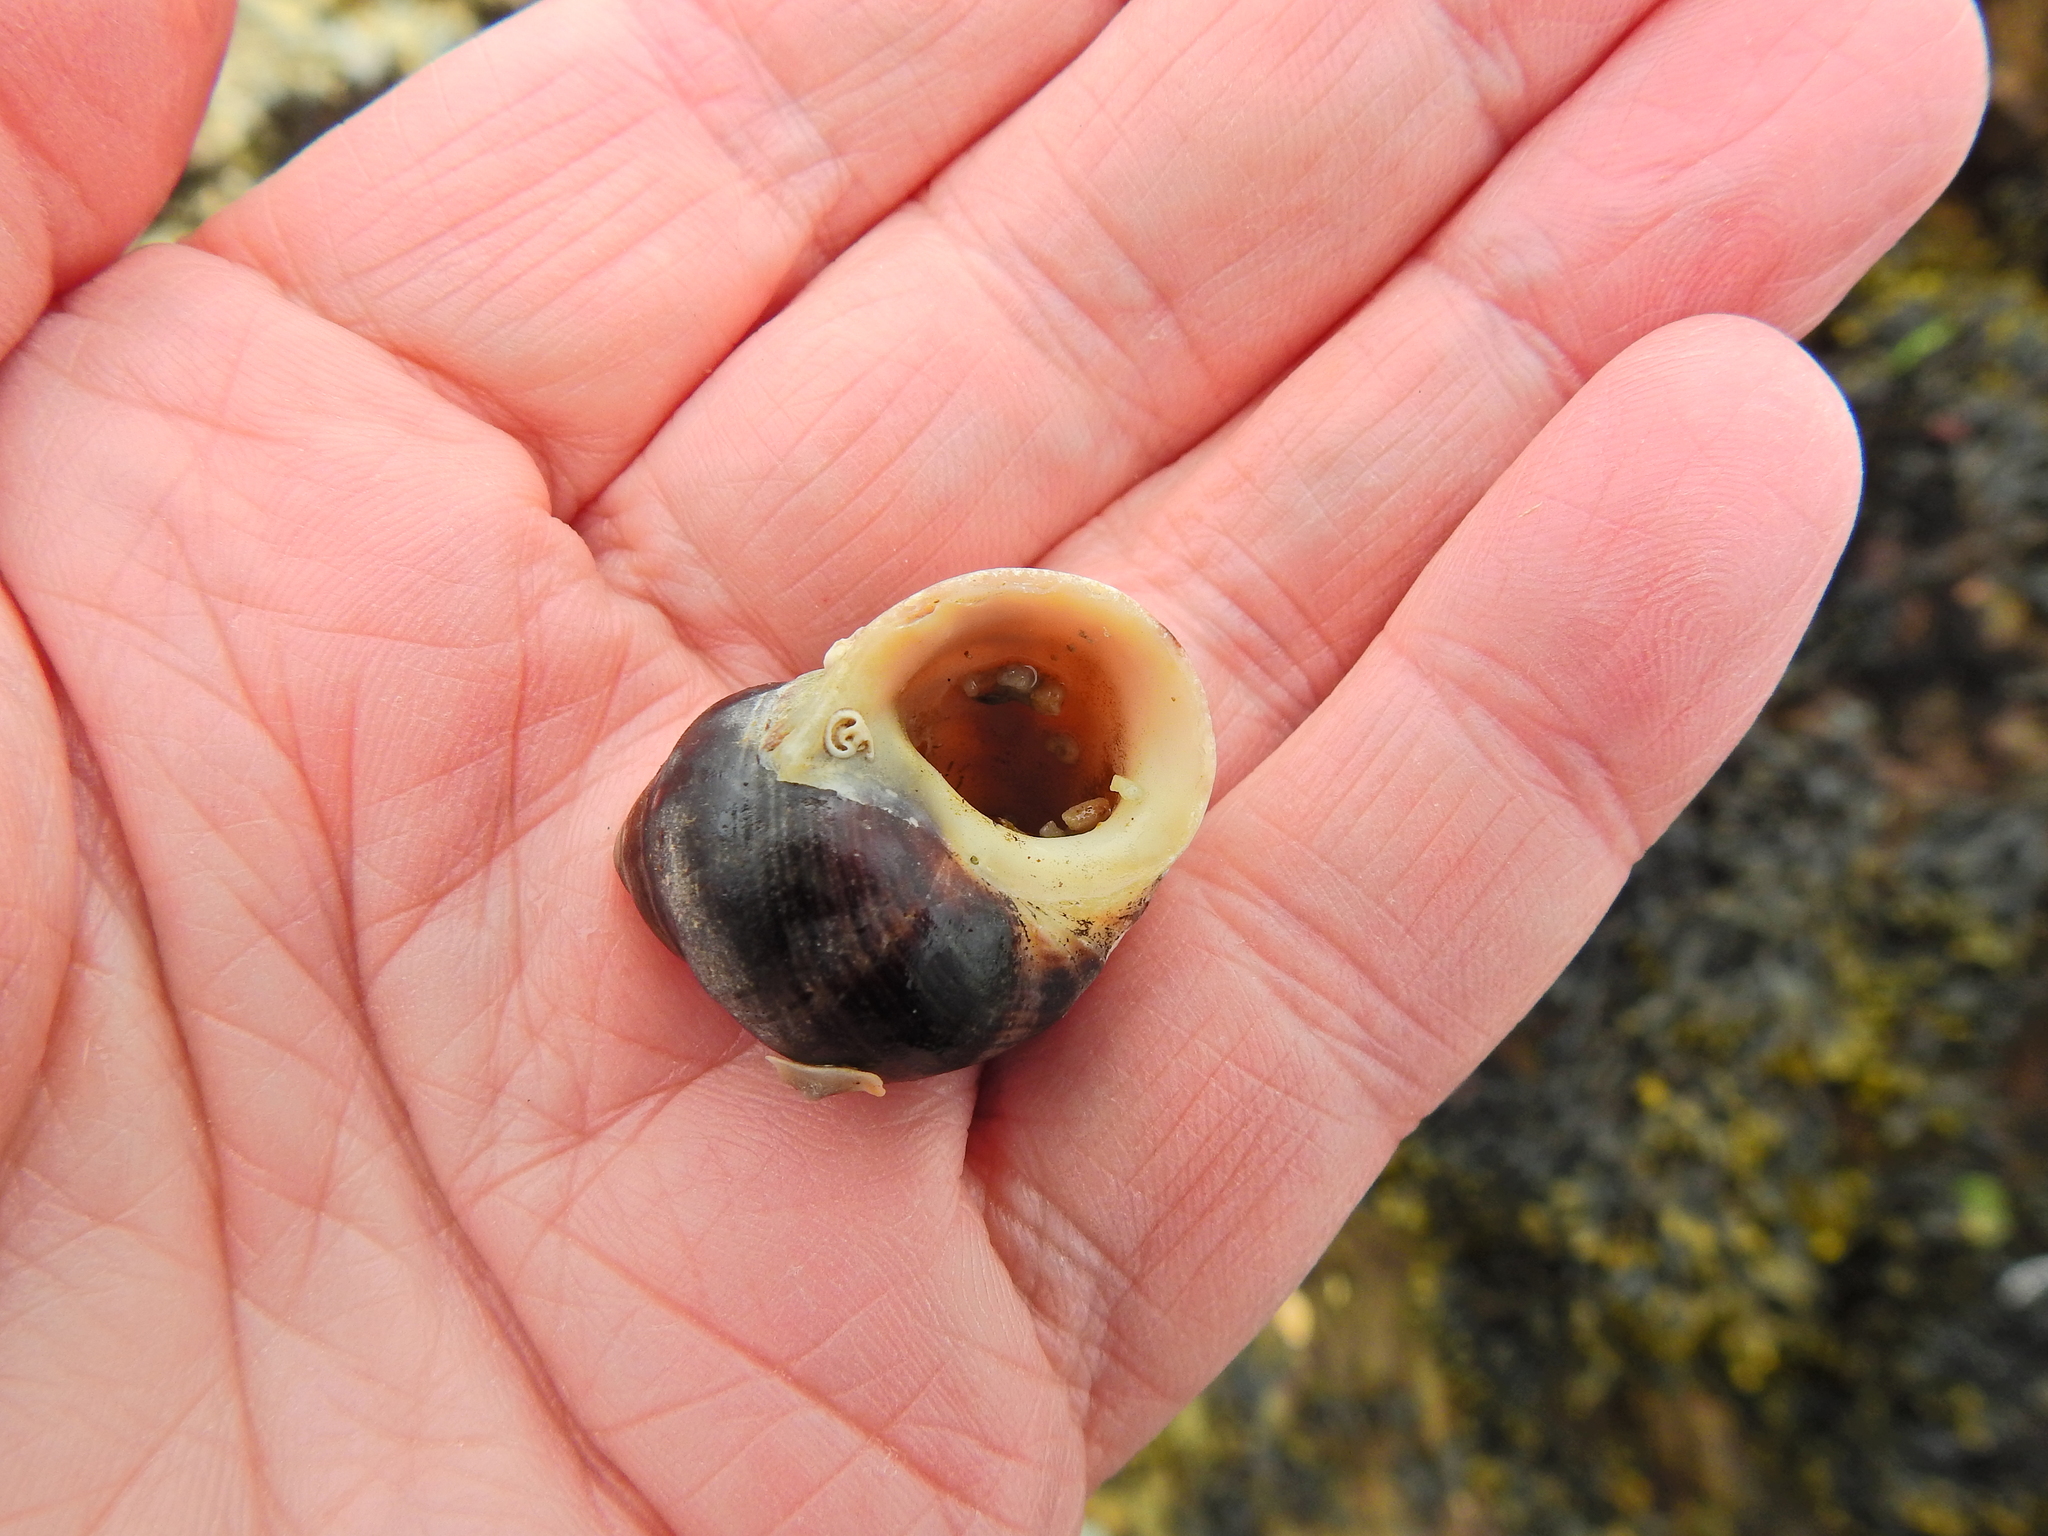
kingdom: Animalia
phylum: Mollusca
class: Gastropoda
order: Littorinimorpha
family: Littorinidae
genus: Littorina
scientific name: Littorina littorea
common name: Common periwinkle
